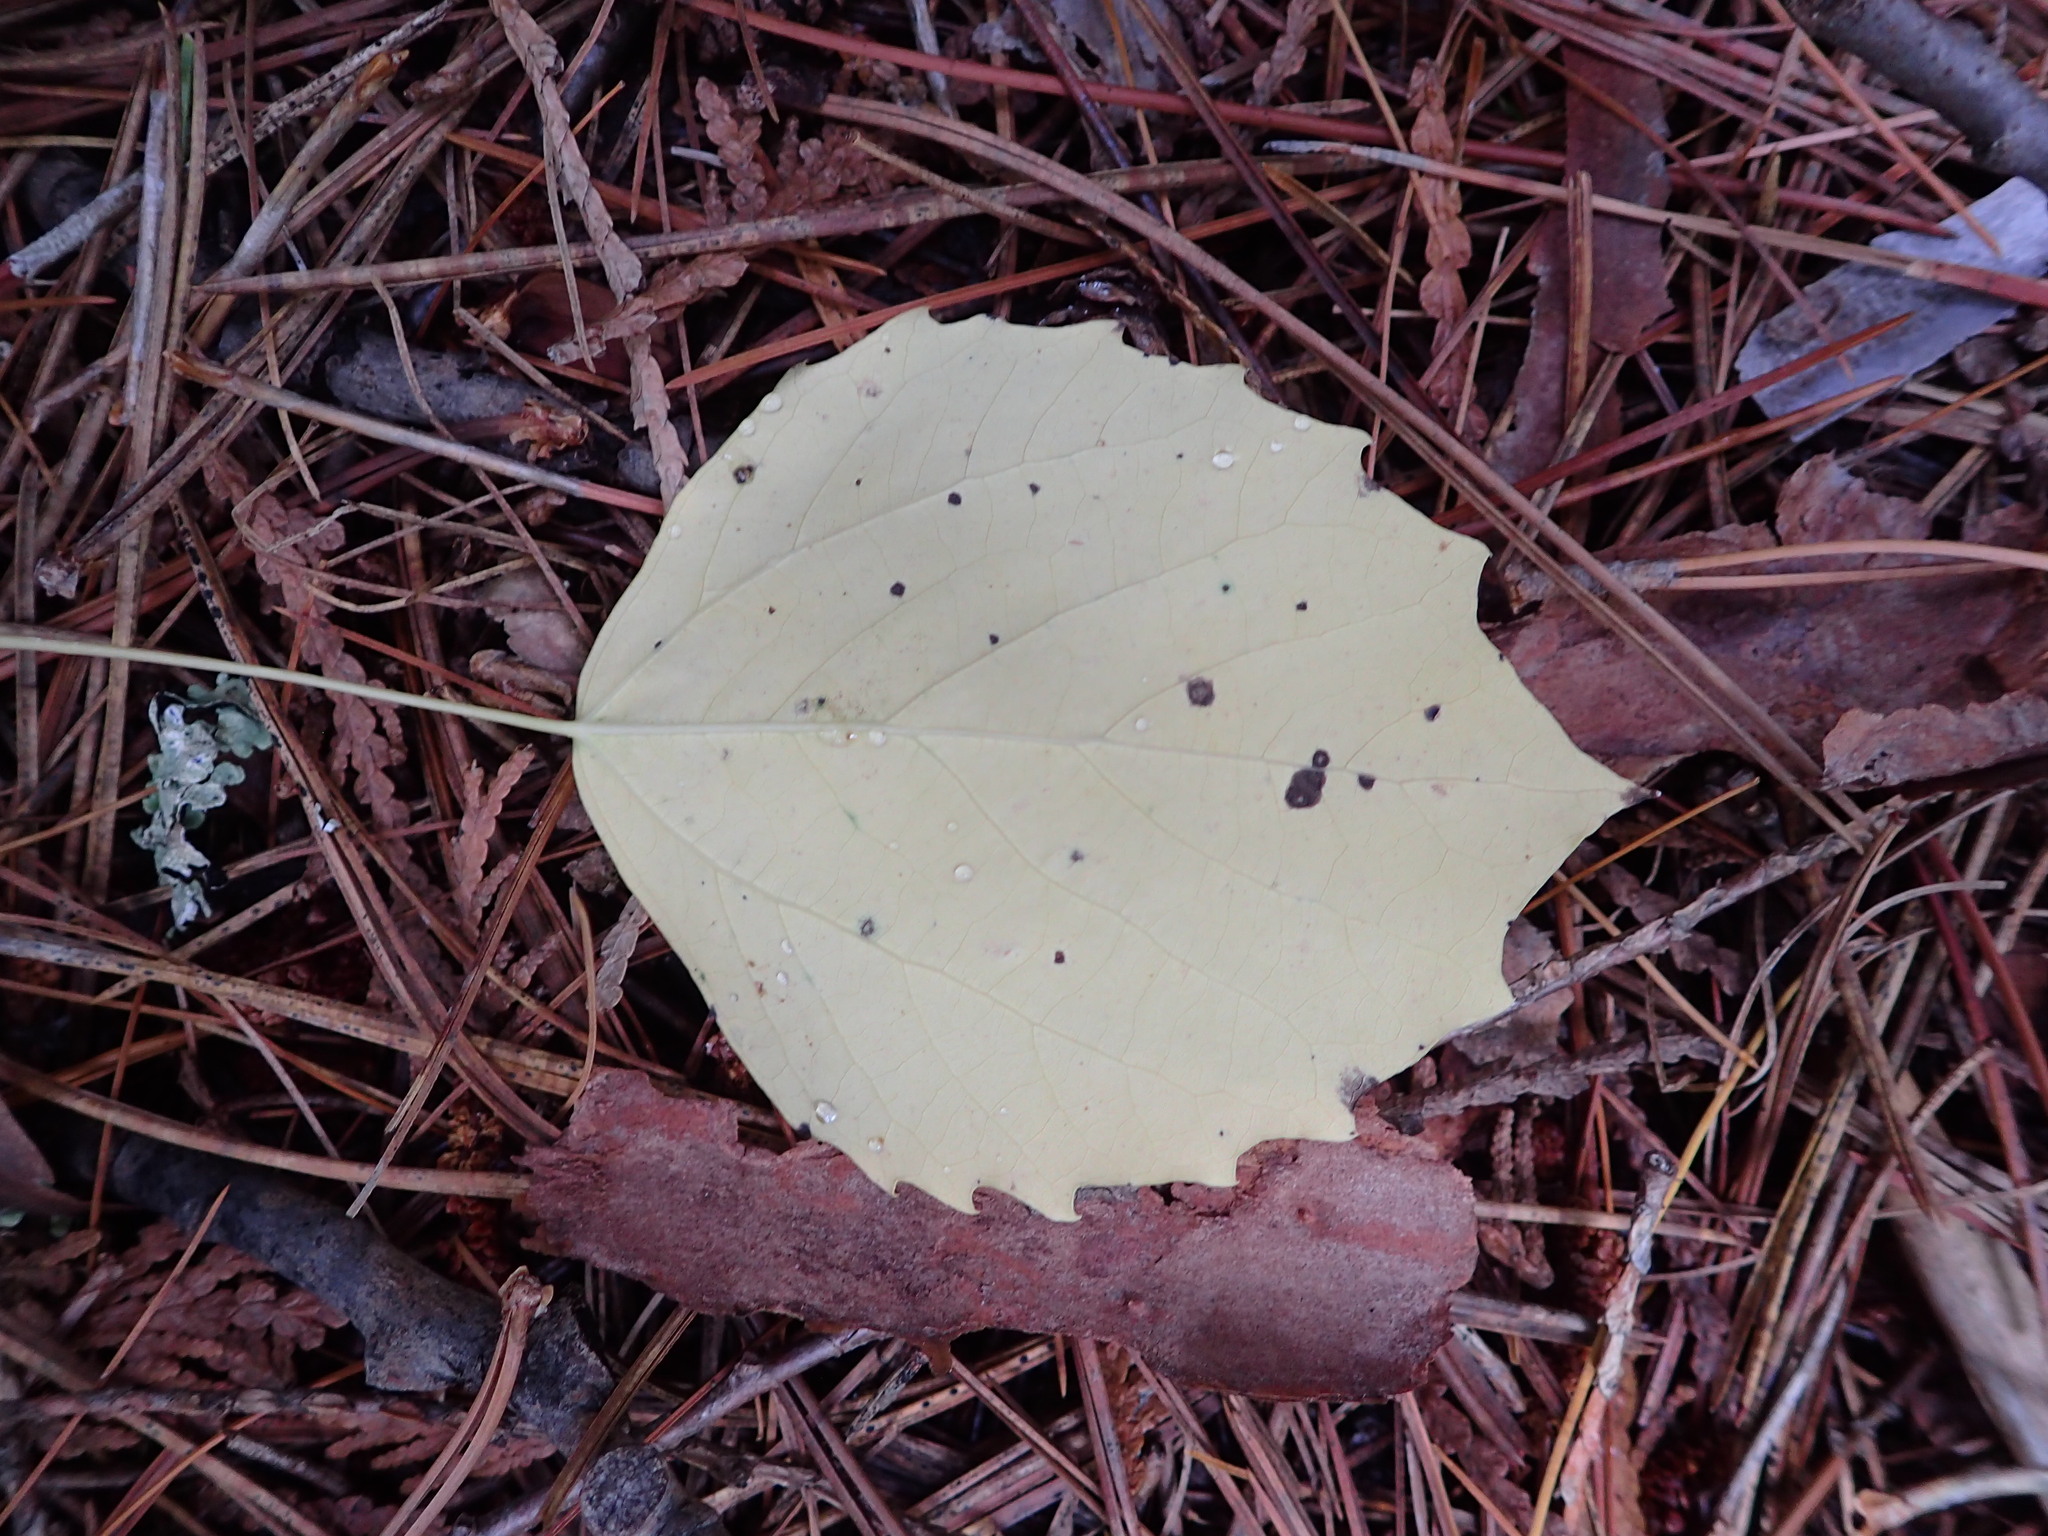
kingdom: Plantae
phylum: Tracheophyta
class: Magnoliopsida
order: Malpighiales
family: Salicaceae
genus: Populus
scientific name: Populus grandidentata
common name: Bigtooth aspen
